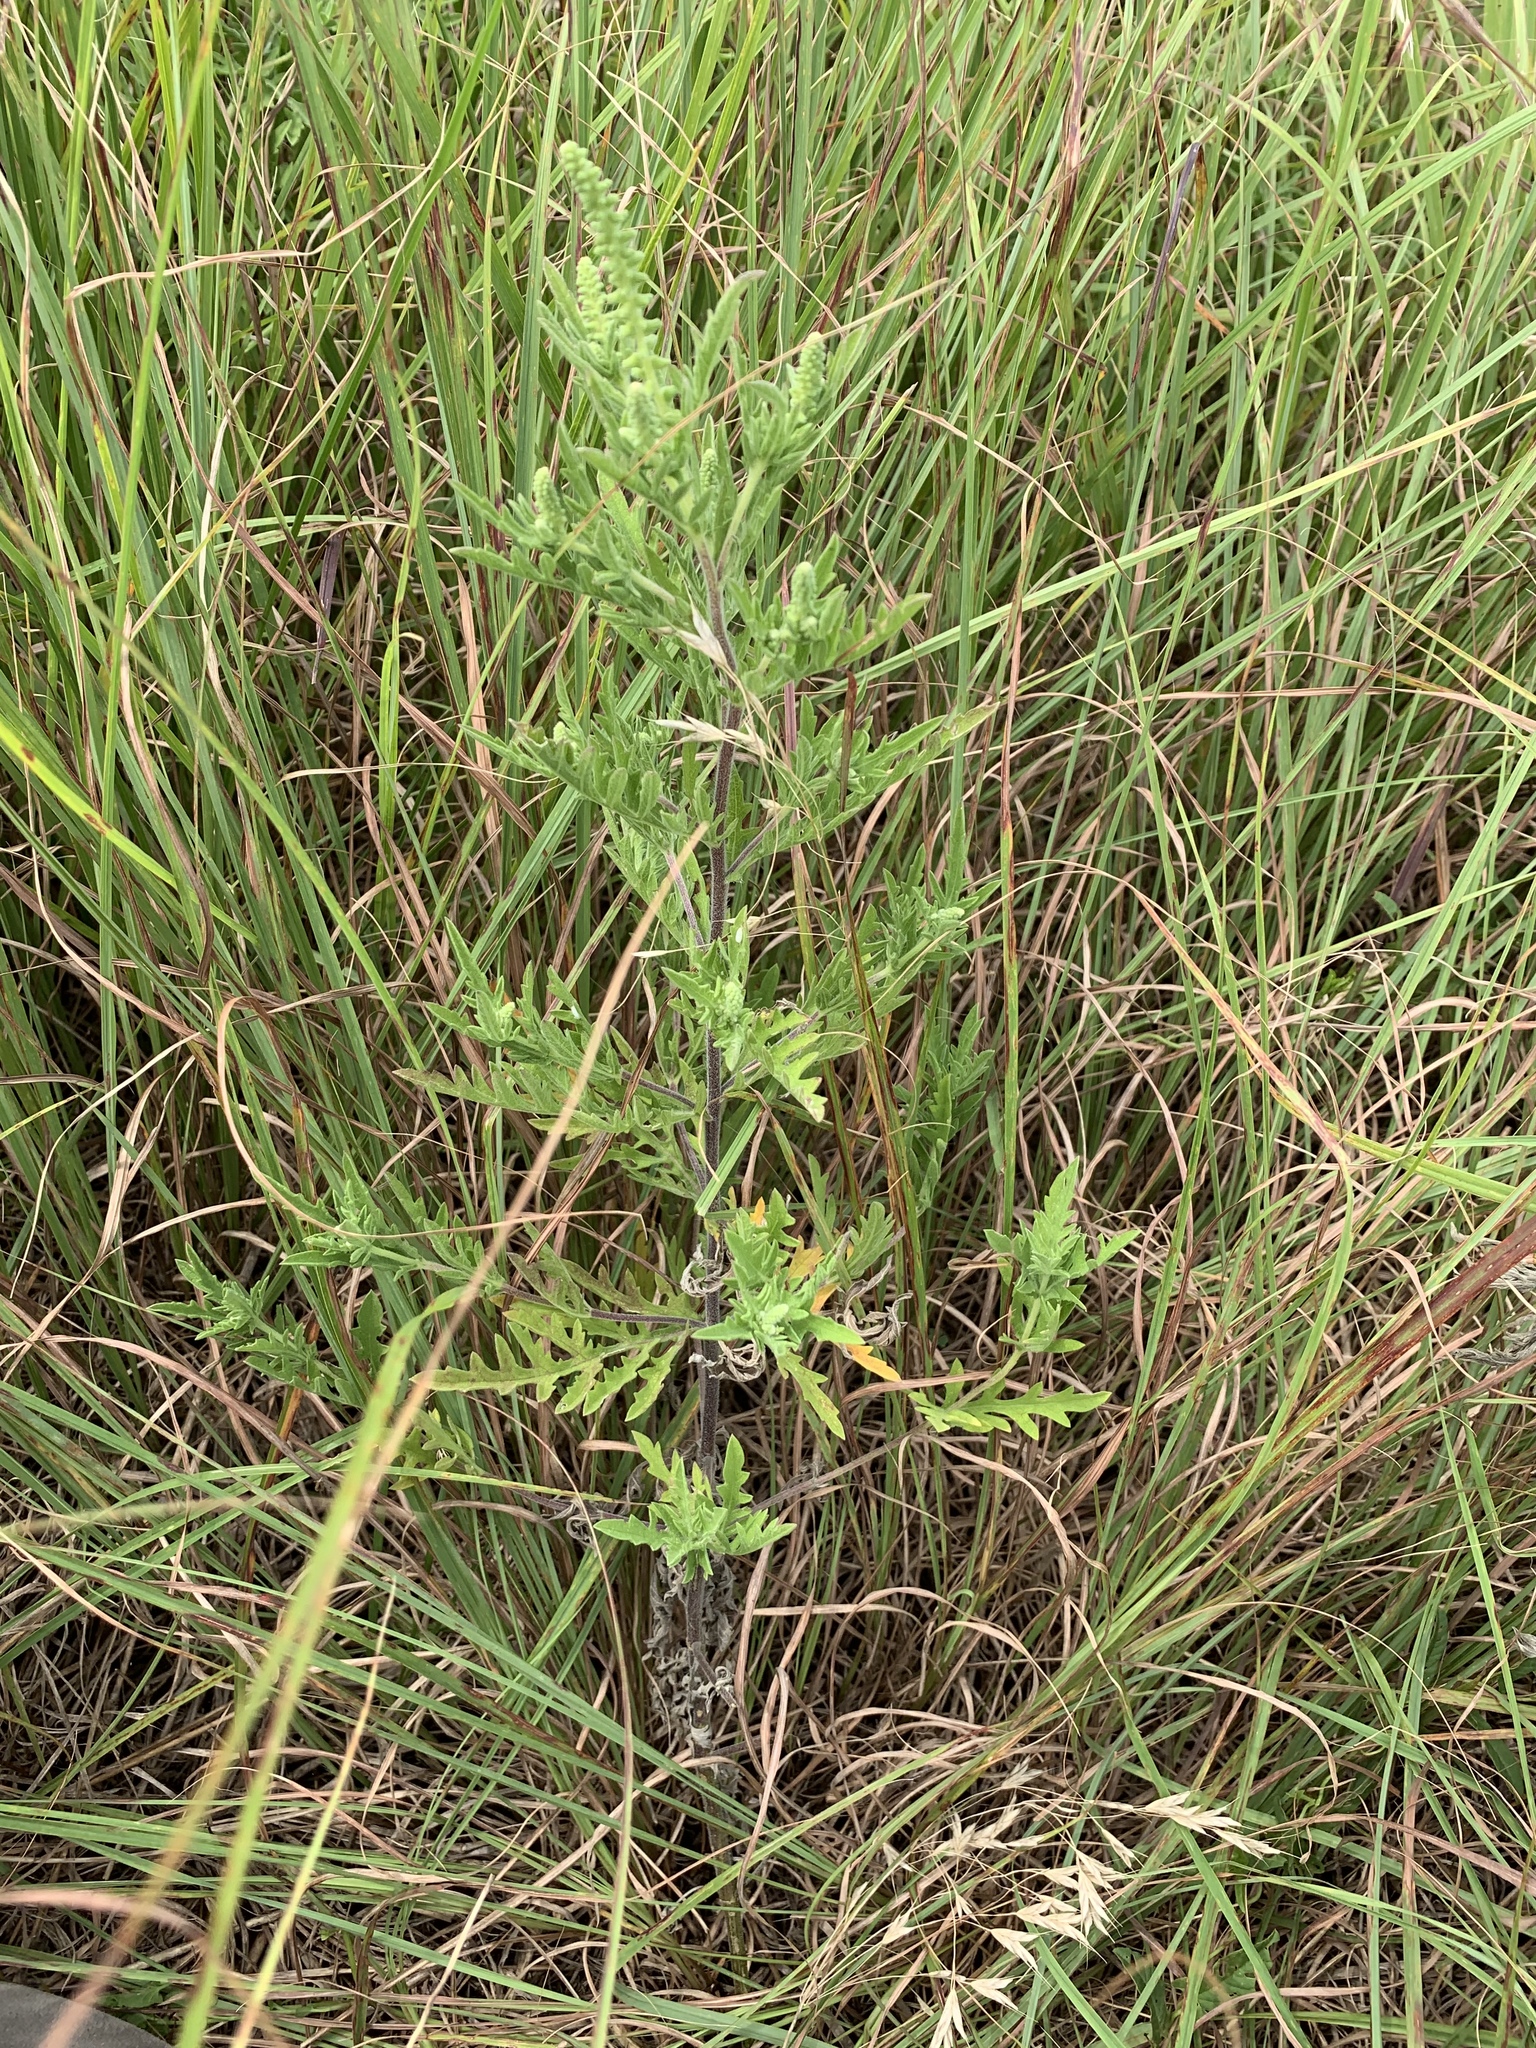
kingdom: Plantae
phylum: Tracheophyta
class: Magnoliopsida
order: Asterales
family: Asteraceae
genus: Ambrosia
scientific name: Ambrosia psilostachya
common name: Perennial ragweed
